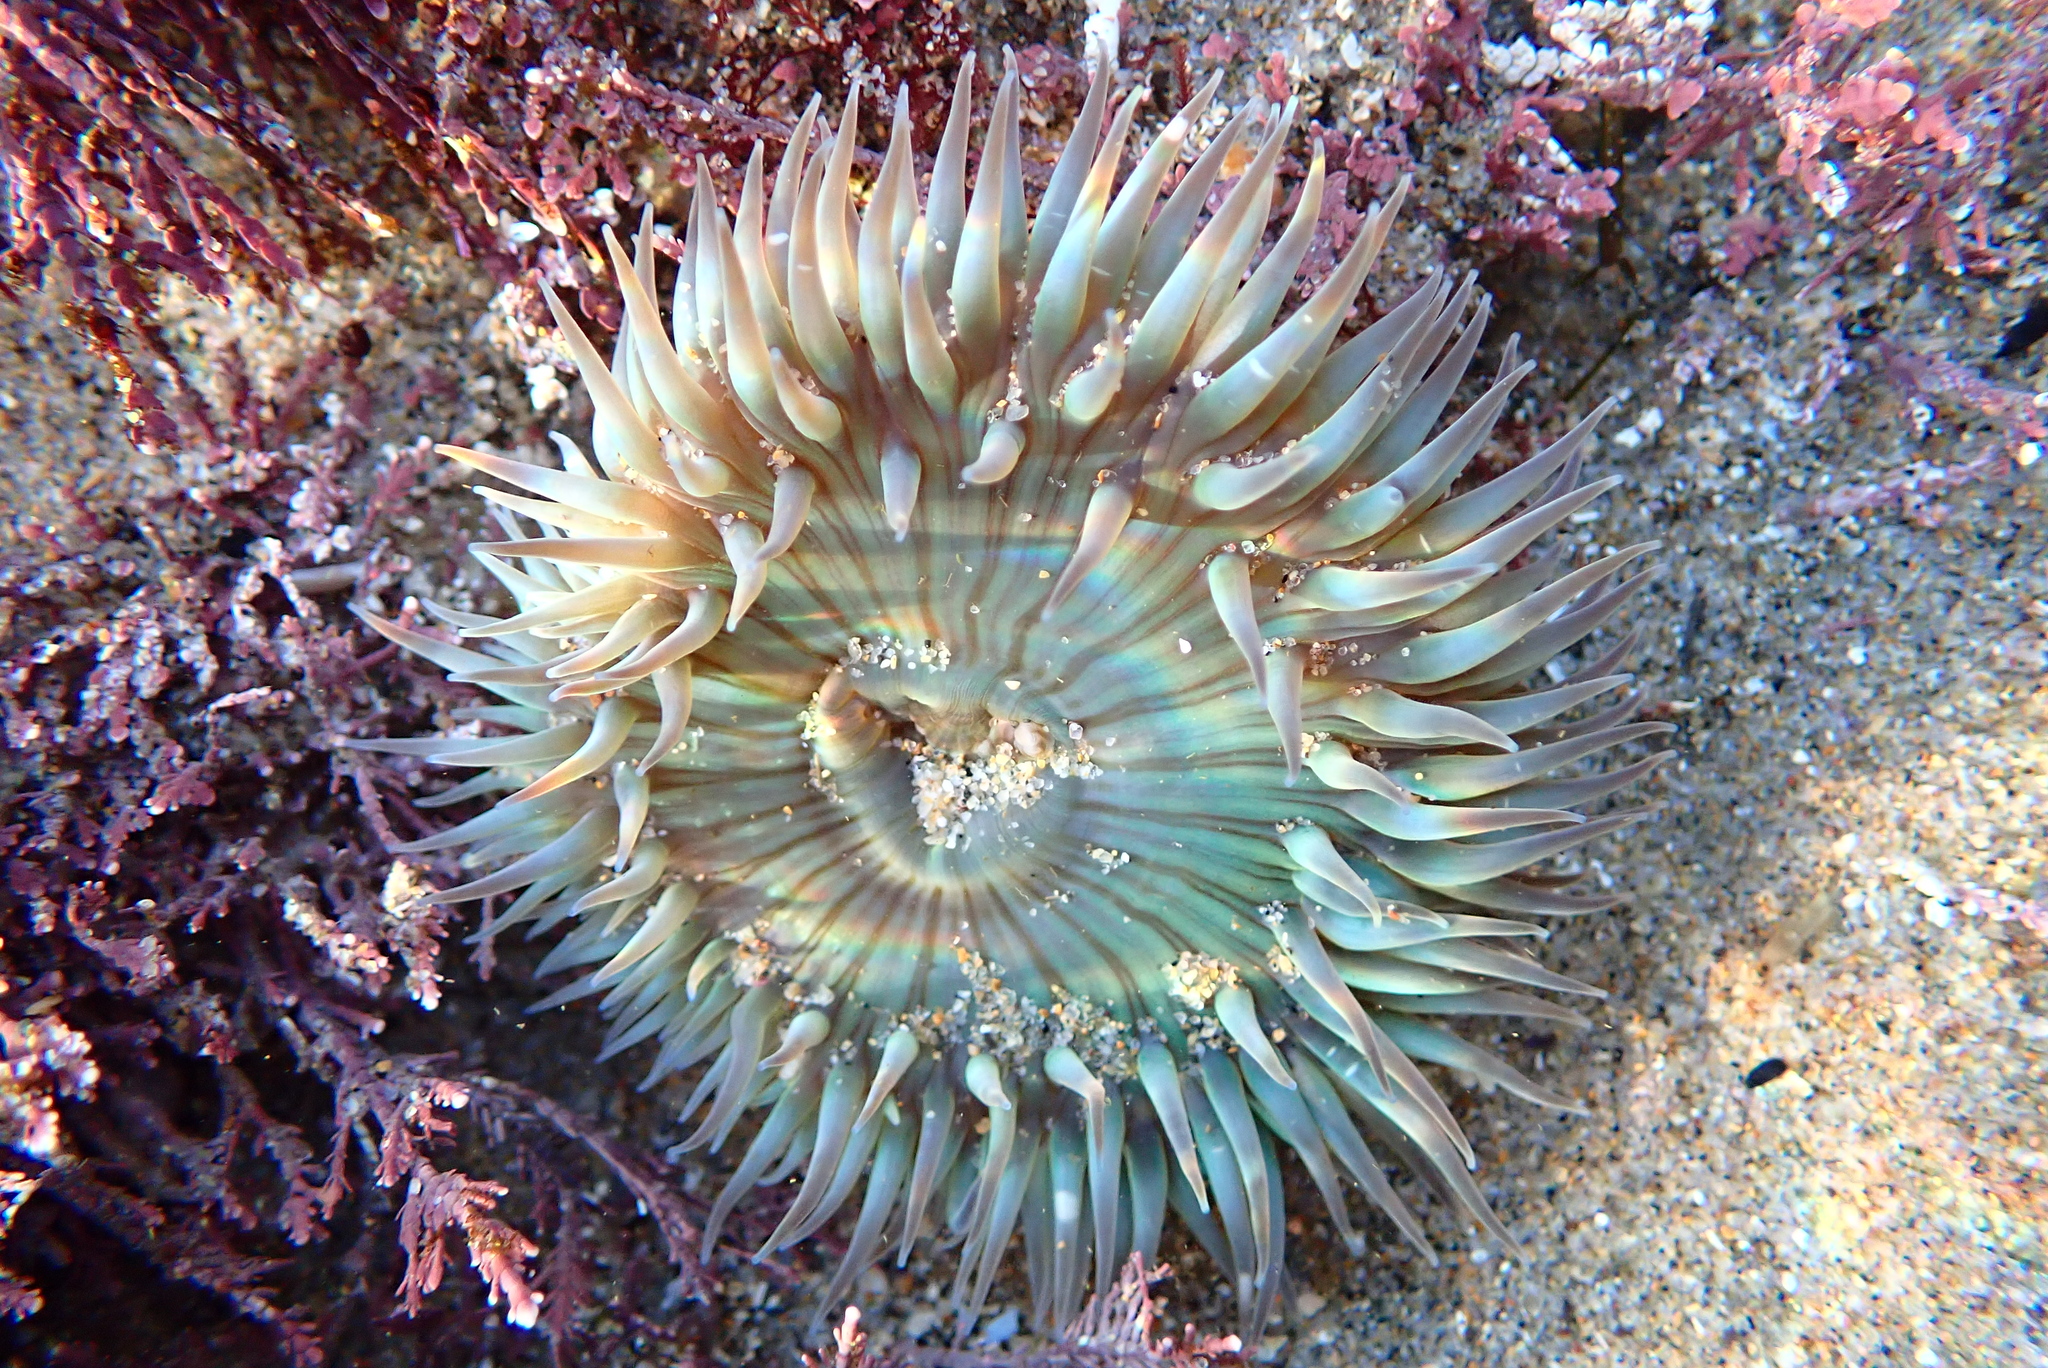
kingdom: Animalia
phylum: Cnidaria
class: Anthozoa
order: Actiniaria
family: Actiniidae
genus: Anthopleura
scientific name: Anthopleura sola
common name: Sun anemone
